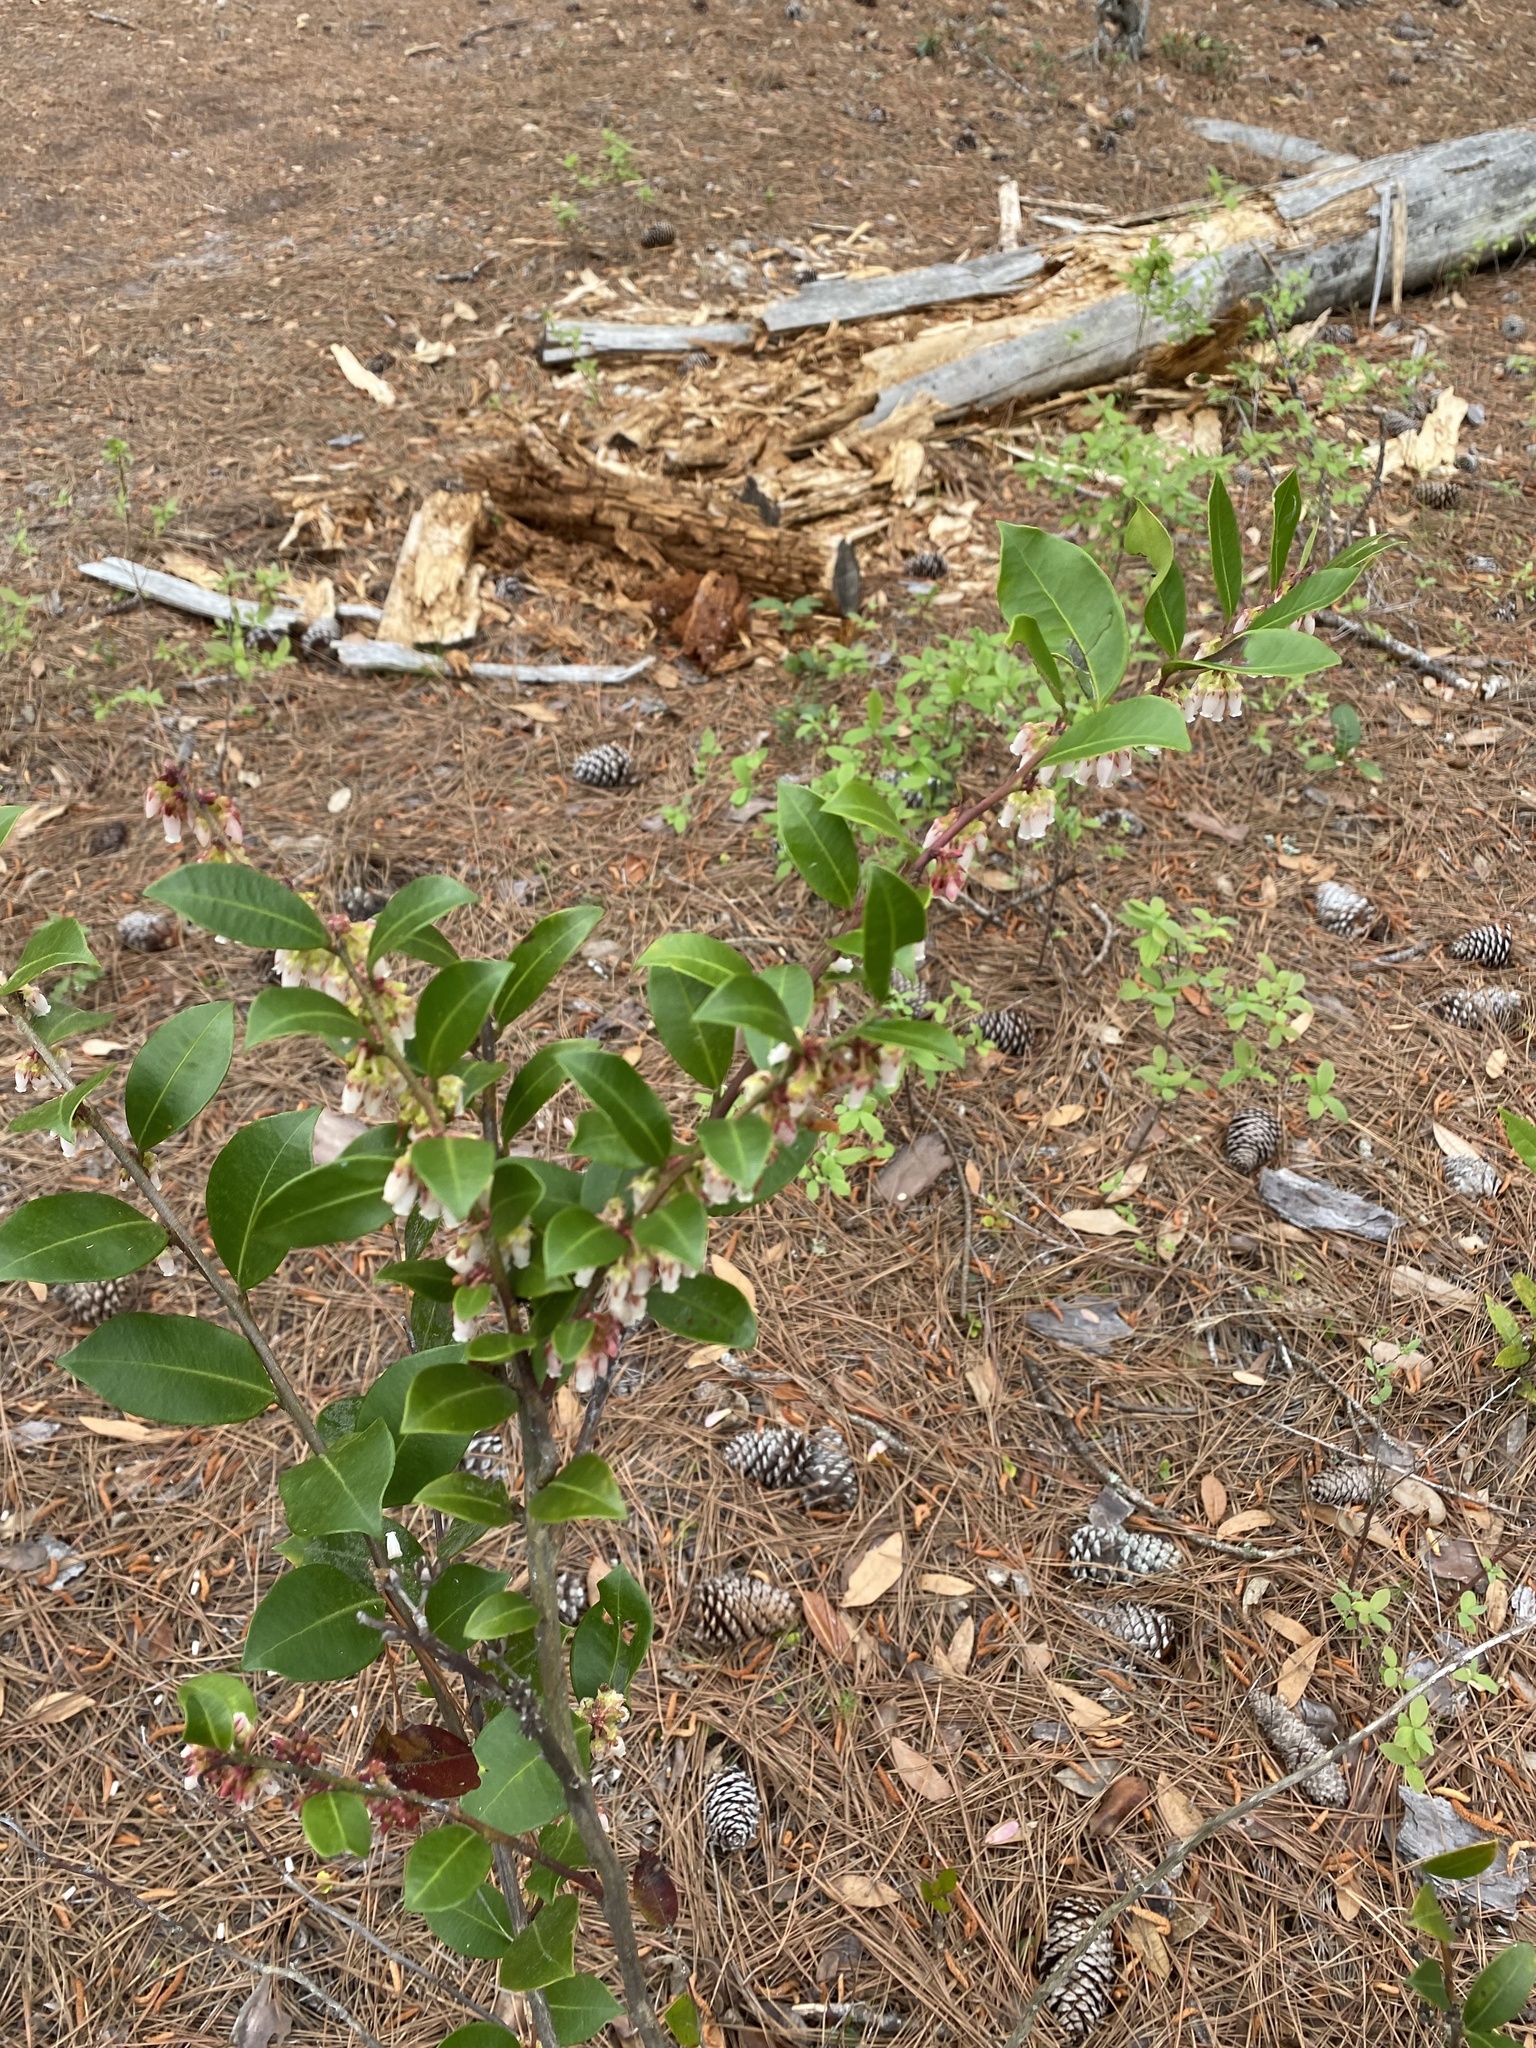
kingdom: Plantae
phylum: Tracheophyta
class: Magnoliopsida
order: Ericales
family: Ericaceae
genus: Lyonia
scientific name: Lyonia lucida
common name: Fetterbush
